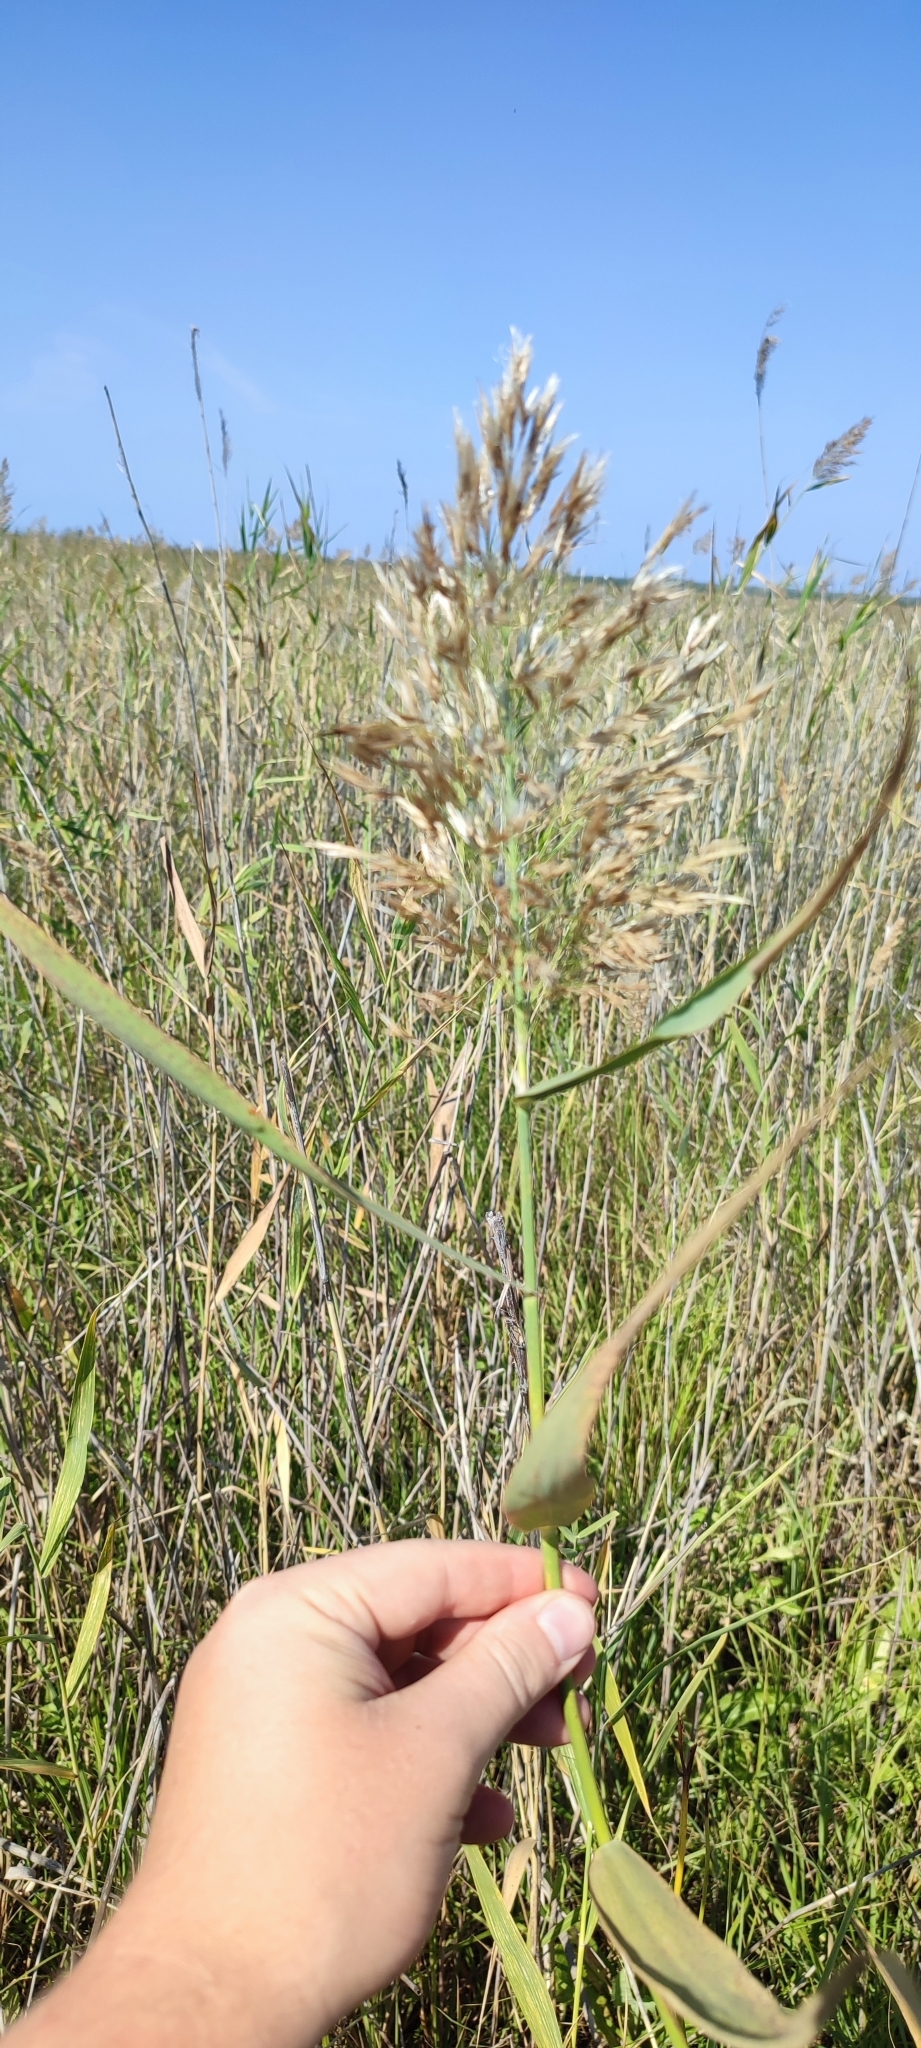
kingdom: Plantae
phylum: Tracheophyta
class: Liliopsida
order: Poales
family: Poaceae
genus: Phragmites
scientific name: Phragmites australis
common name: Common reed
